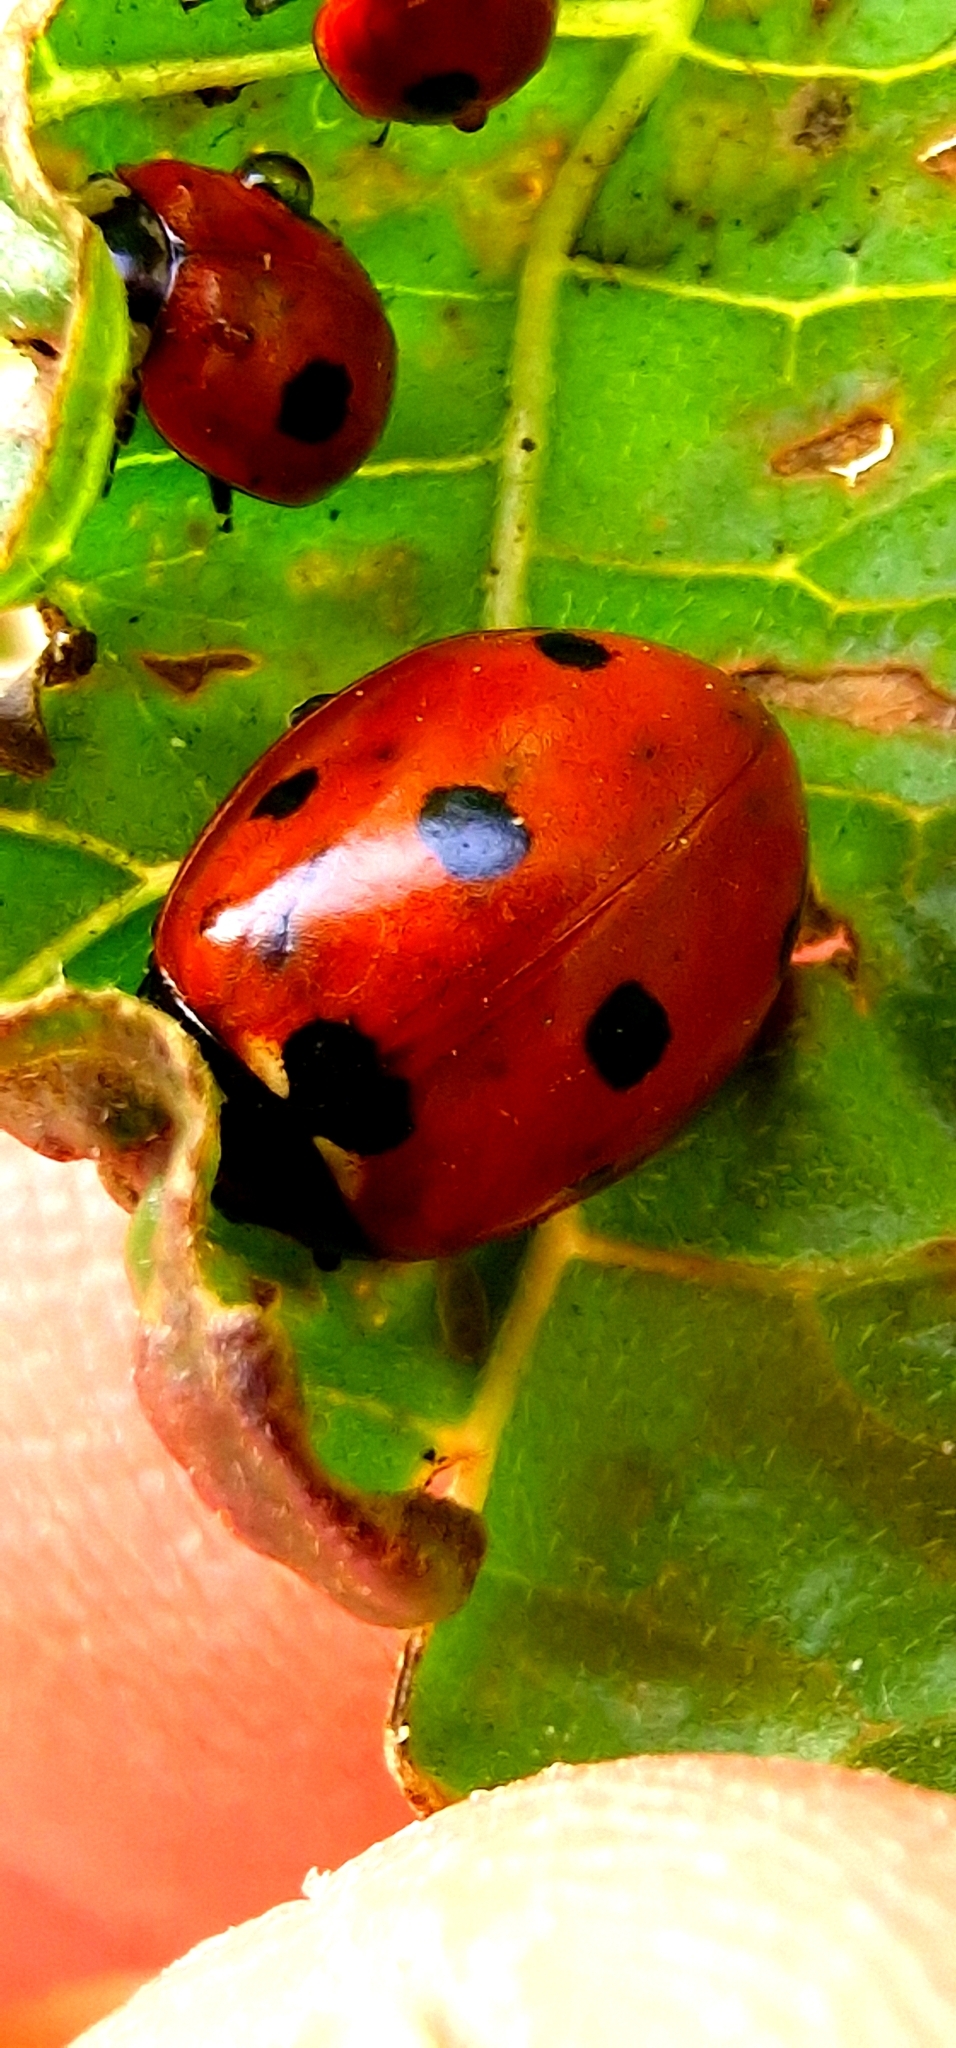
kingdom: Animalia
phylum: Arthropoda
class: Insecta
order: Coleoptera
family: Coccinellidae
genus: Coccinella
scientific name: Coccinella septempunctata
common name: Sevenspotted lady beetle
